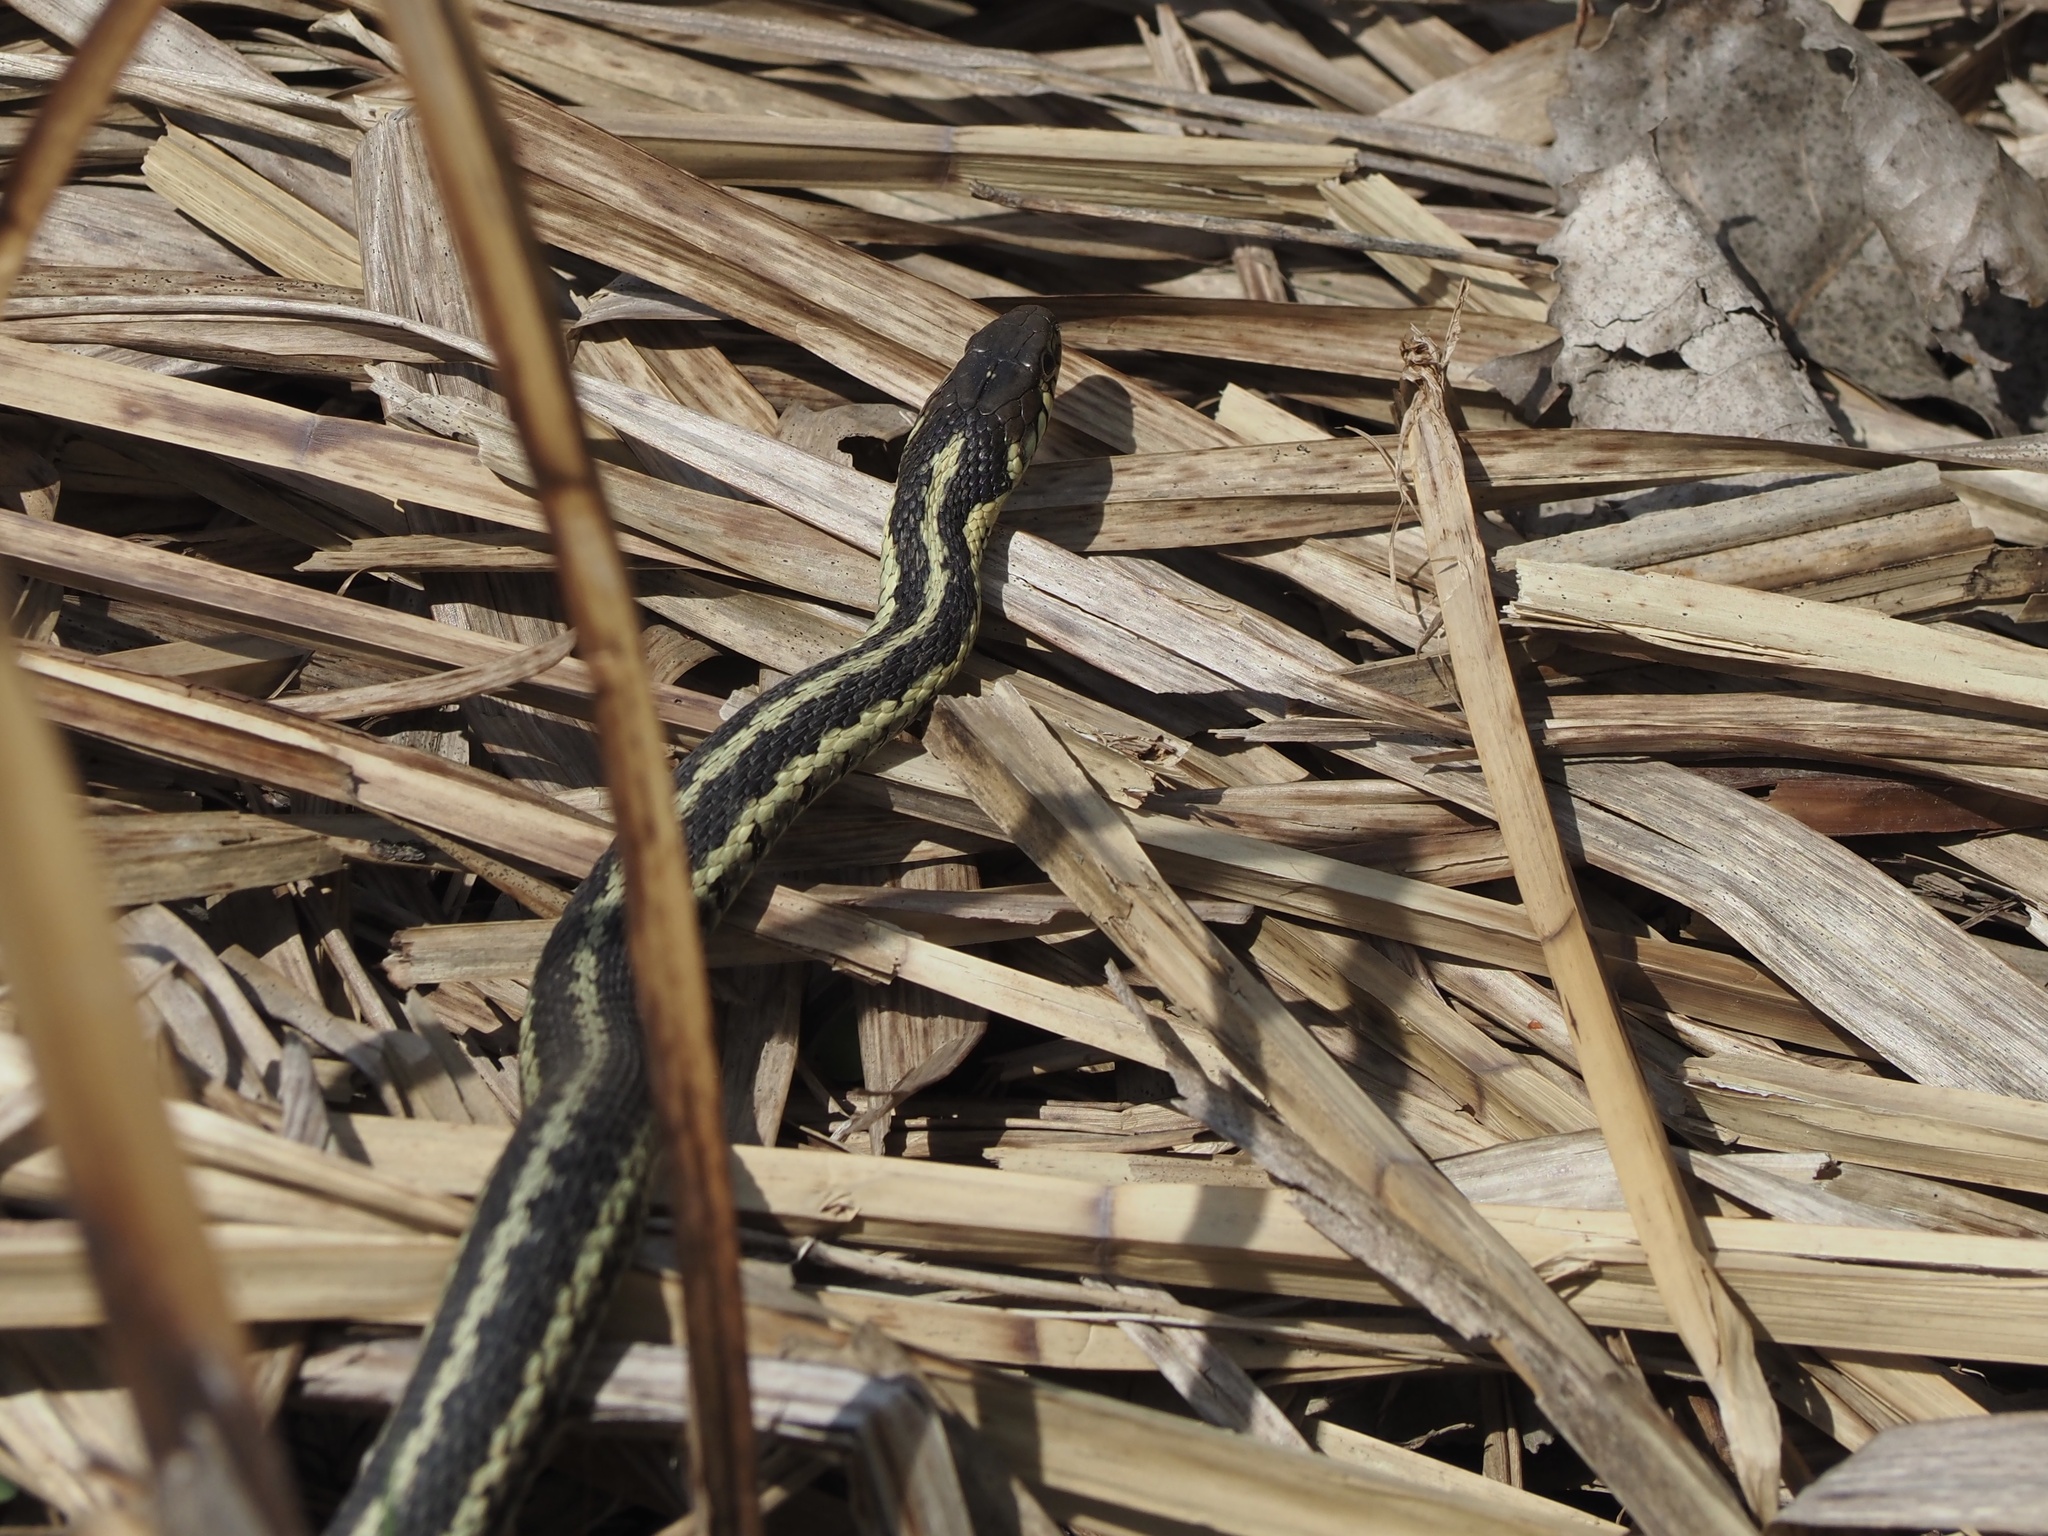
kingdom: Animalia
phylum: Chordata
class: Squamata
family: Colubridae
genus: Thamnophis
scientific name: Thamnophis sirtalis
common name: Common garter snake
